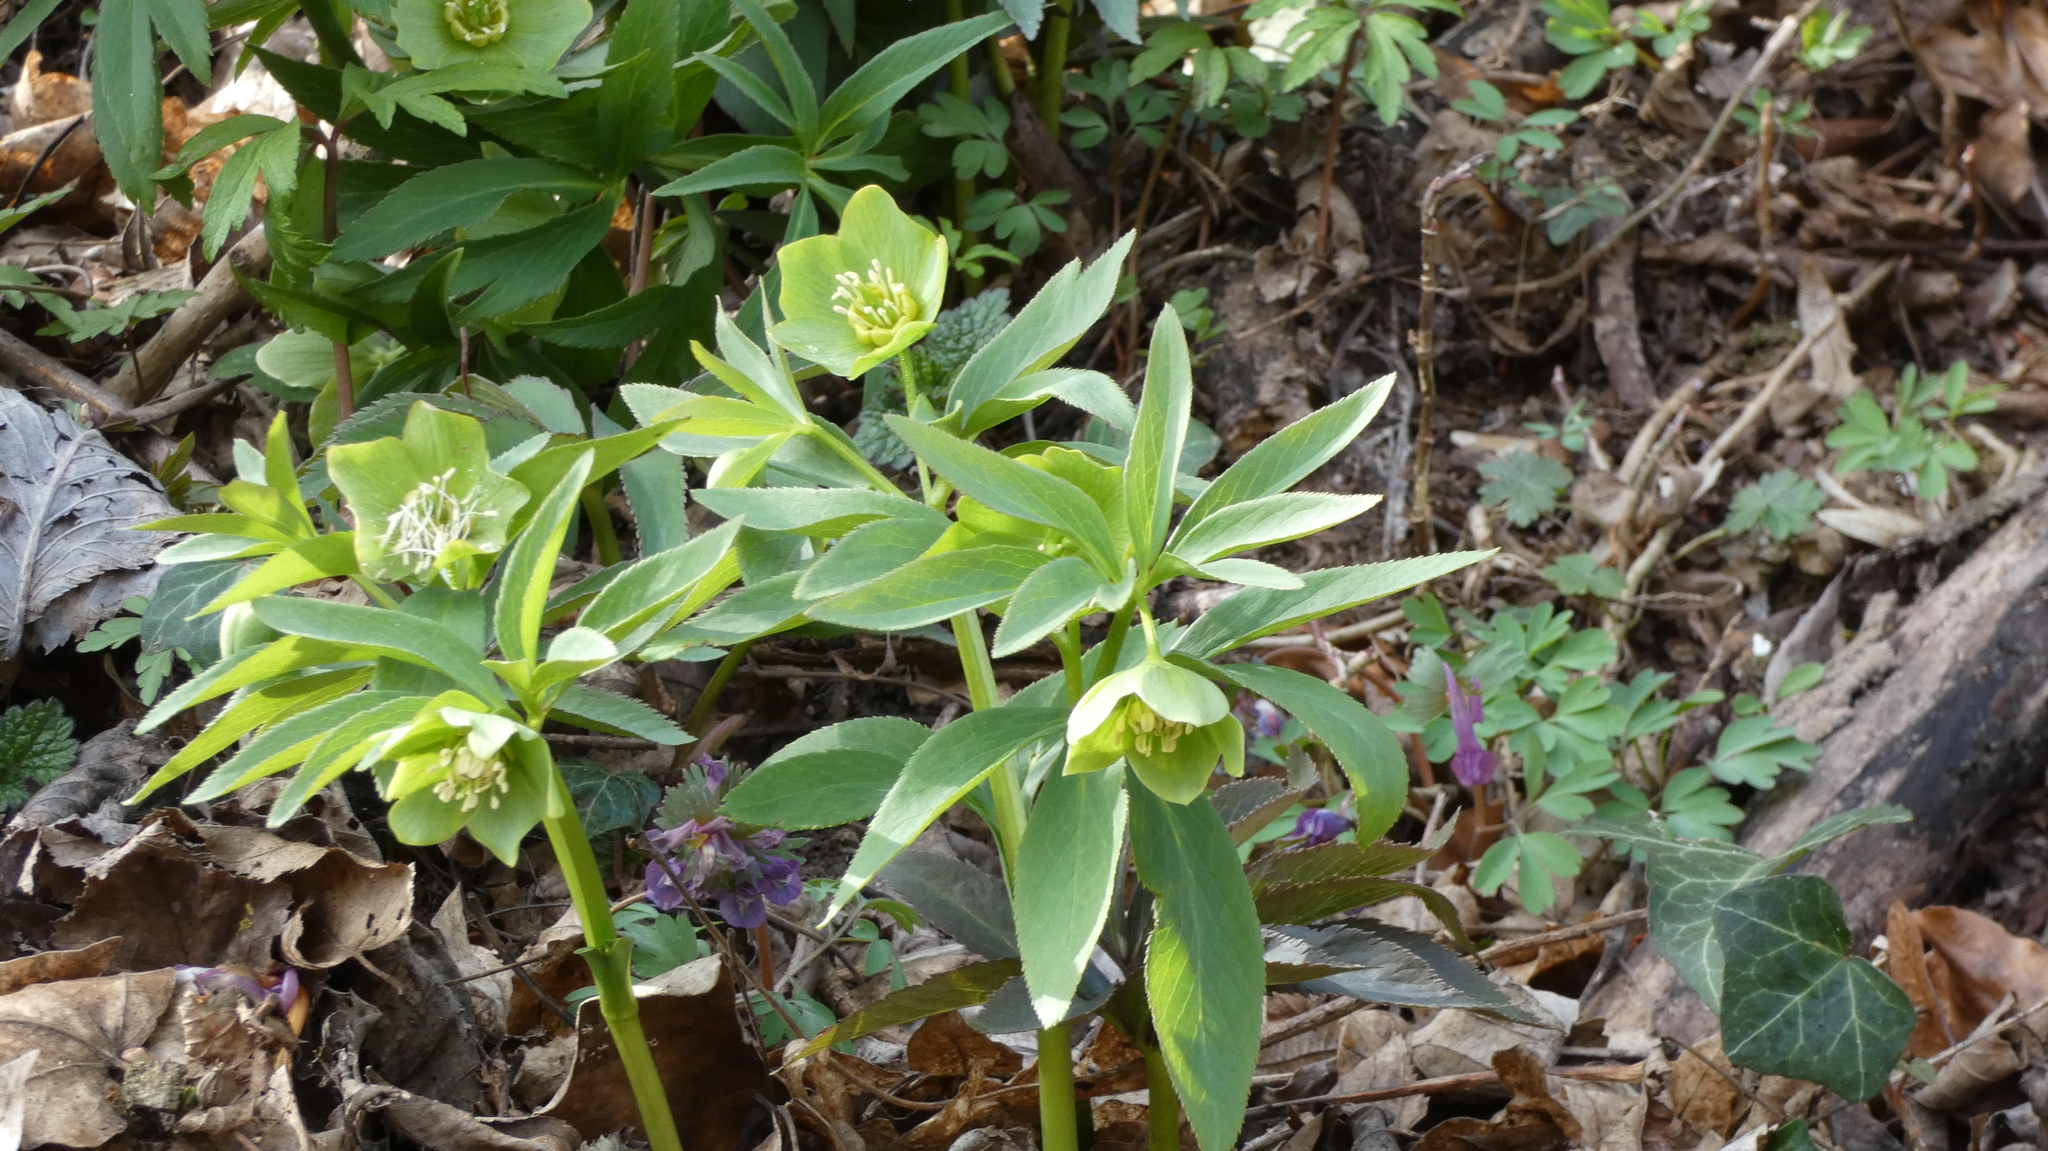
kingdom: Plantae
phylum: Tracheophyta
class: Magnoliopsida
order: Ranunculales
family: Ranunculaceae
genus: Helleborus
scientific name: Helleborus dumetorum
